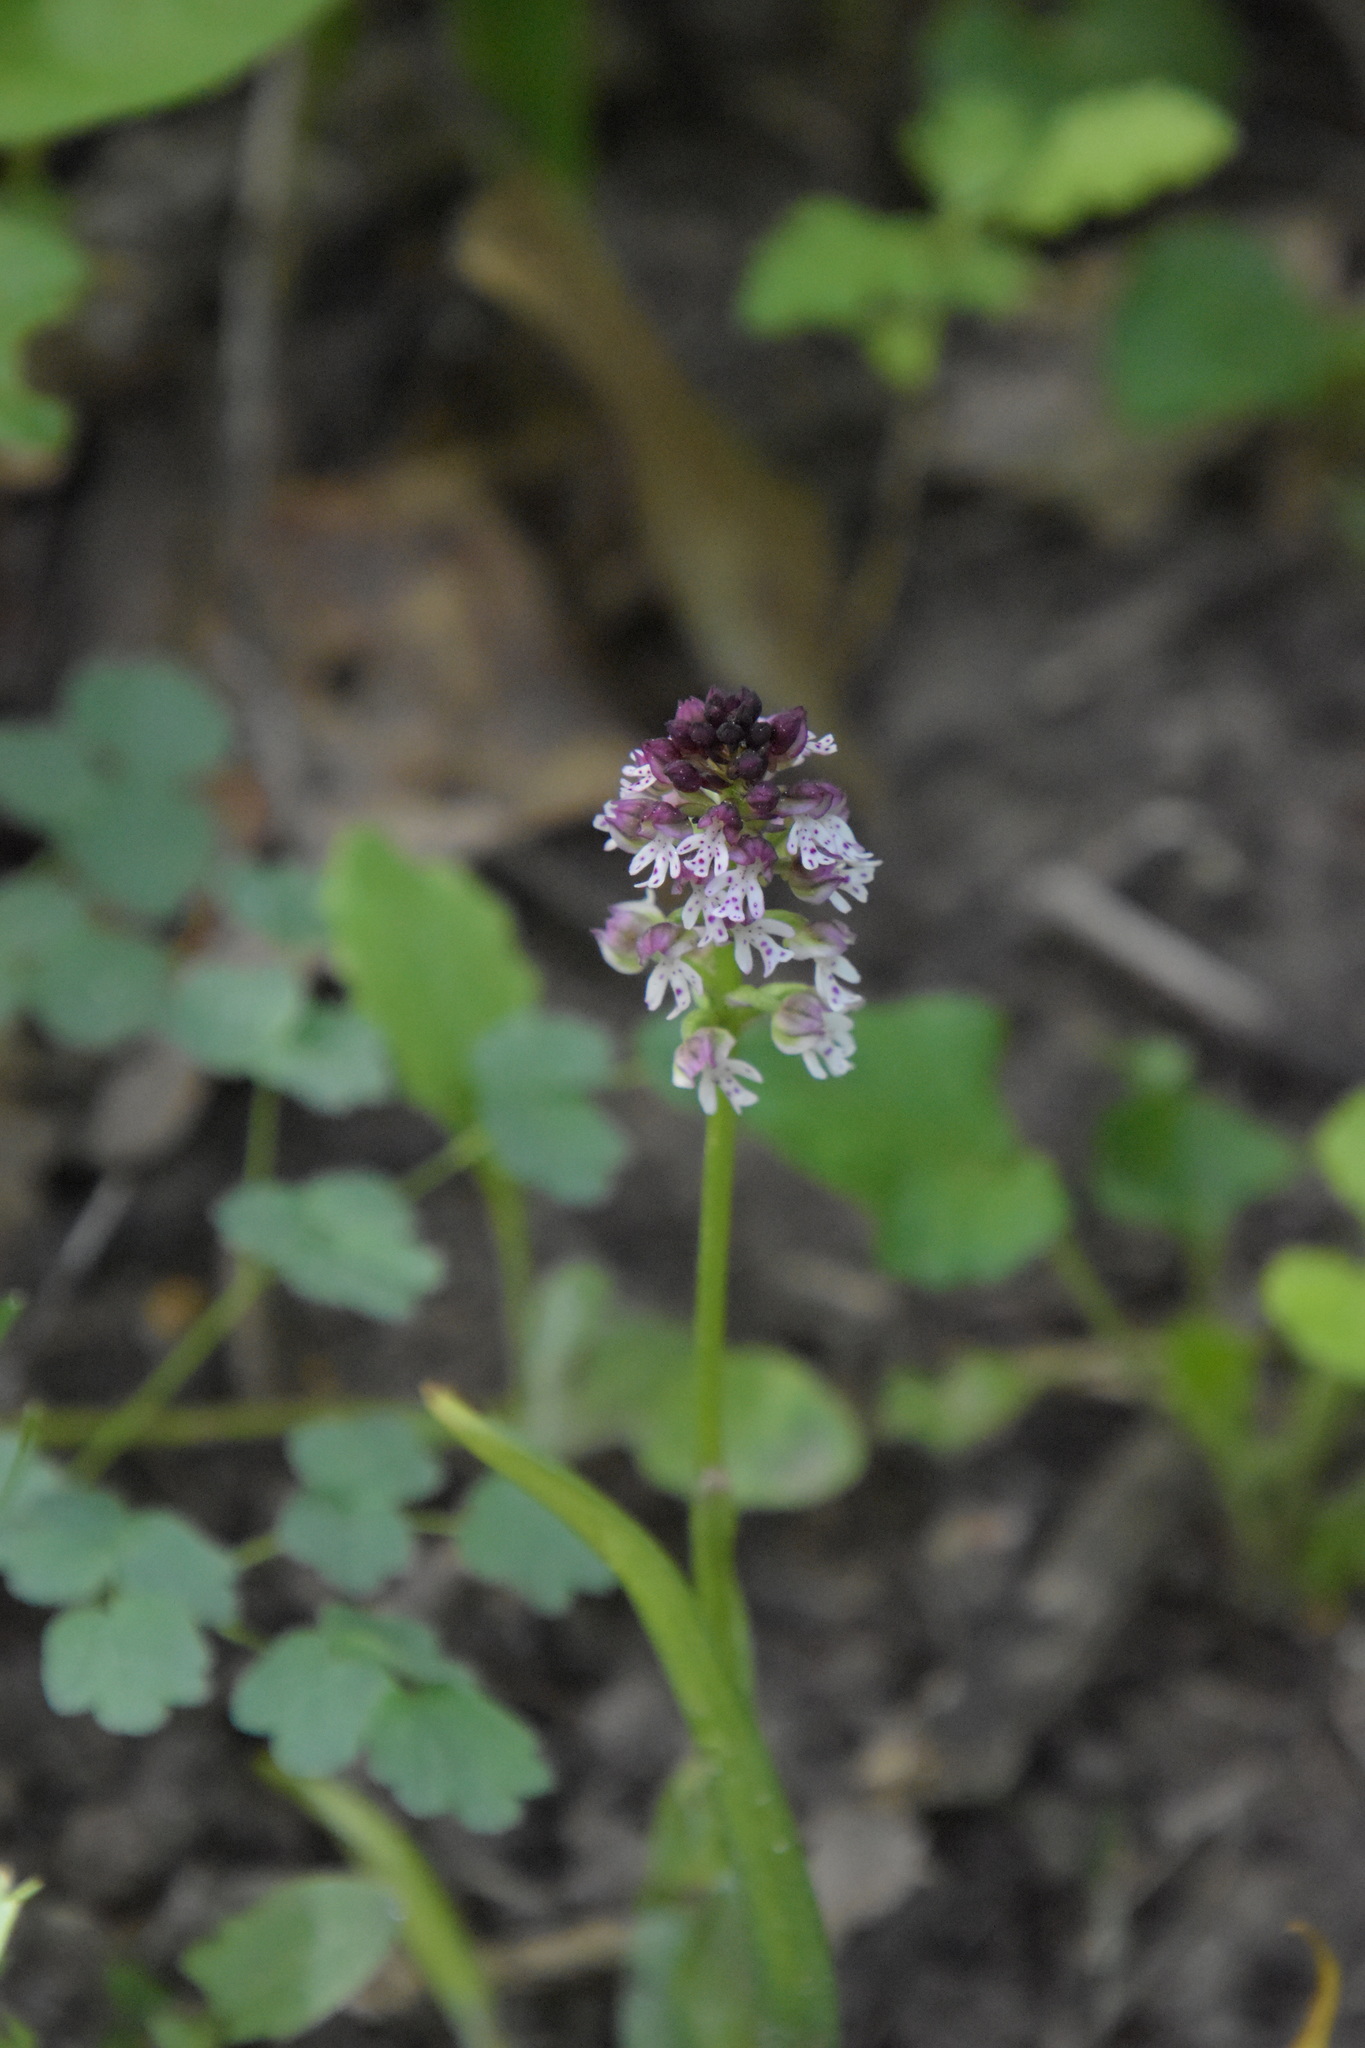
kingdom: Plantae
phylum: Tracheophyta
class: Liliopsida
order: Asparagales
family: Orchidaceae
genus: Neotinea
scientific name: Neotinea ustulata
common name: Burnt orchid
